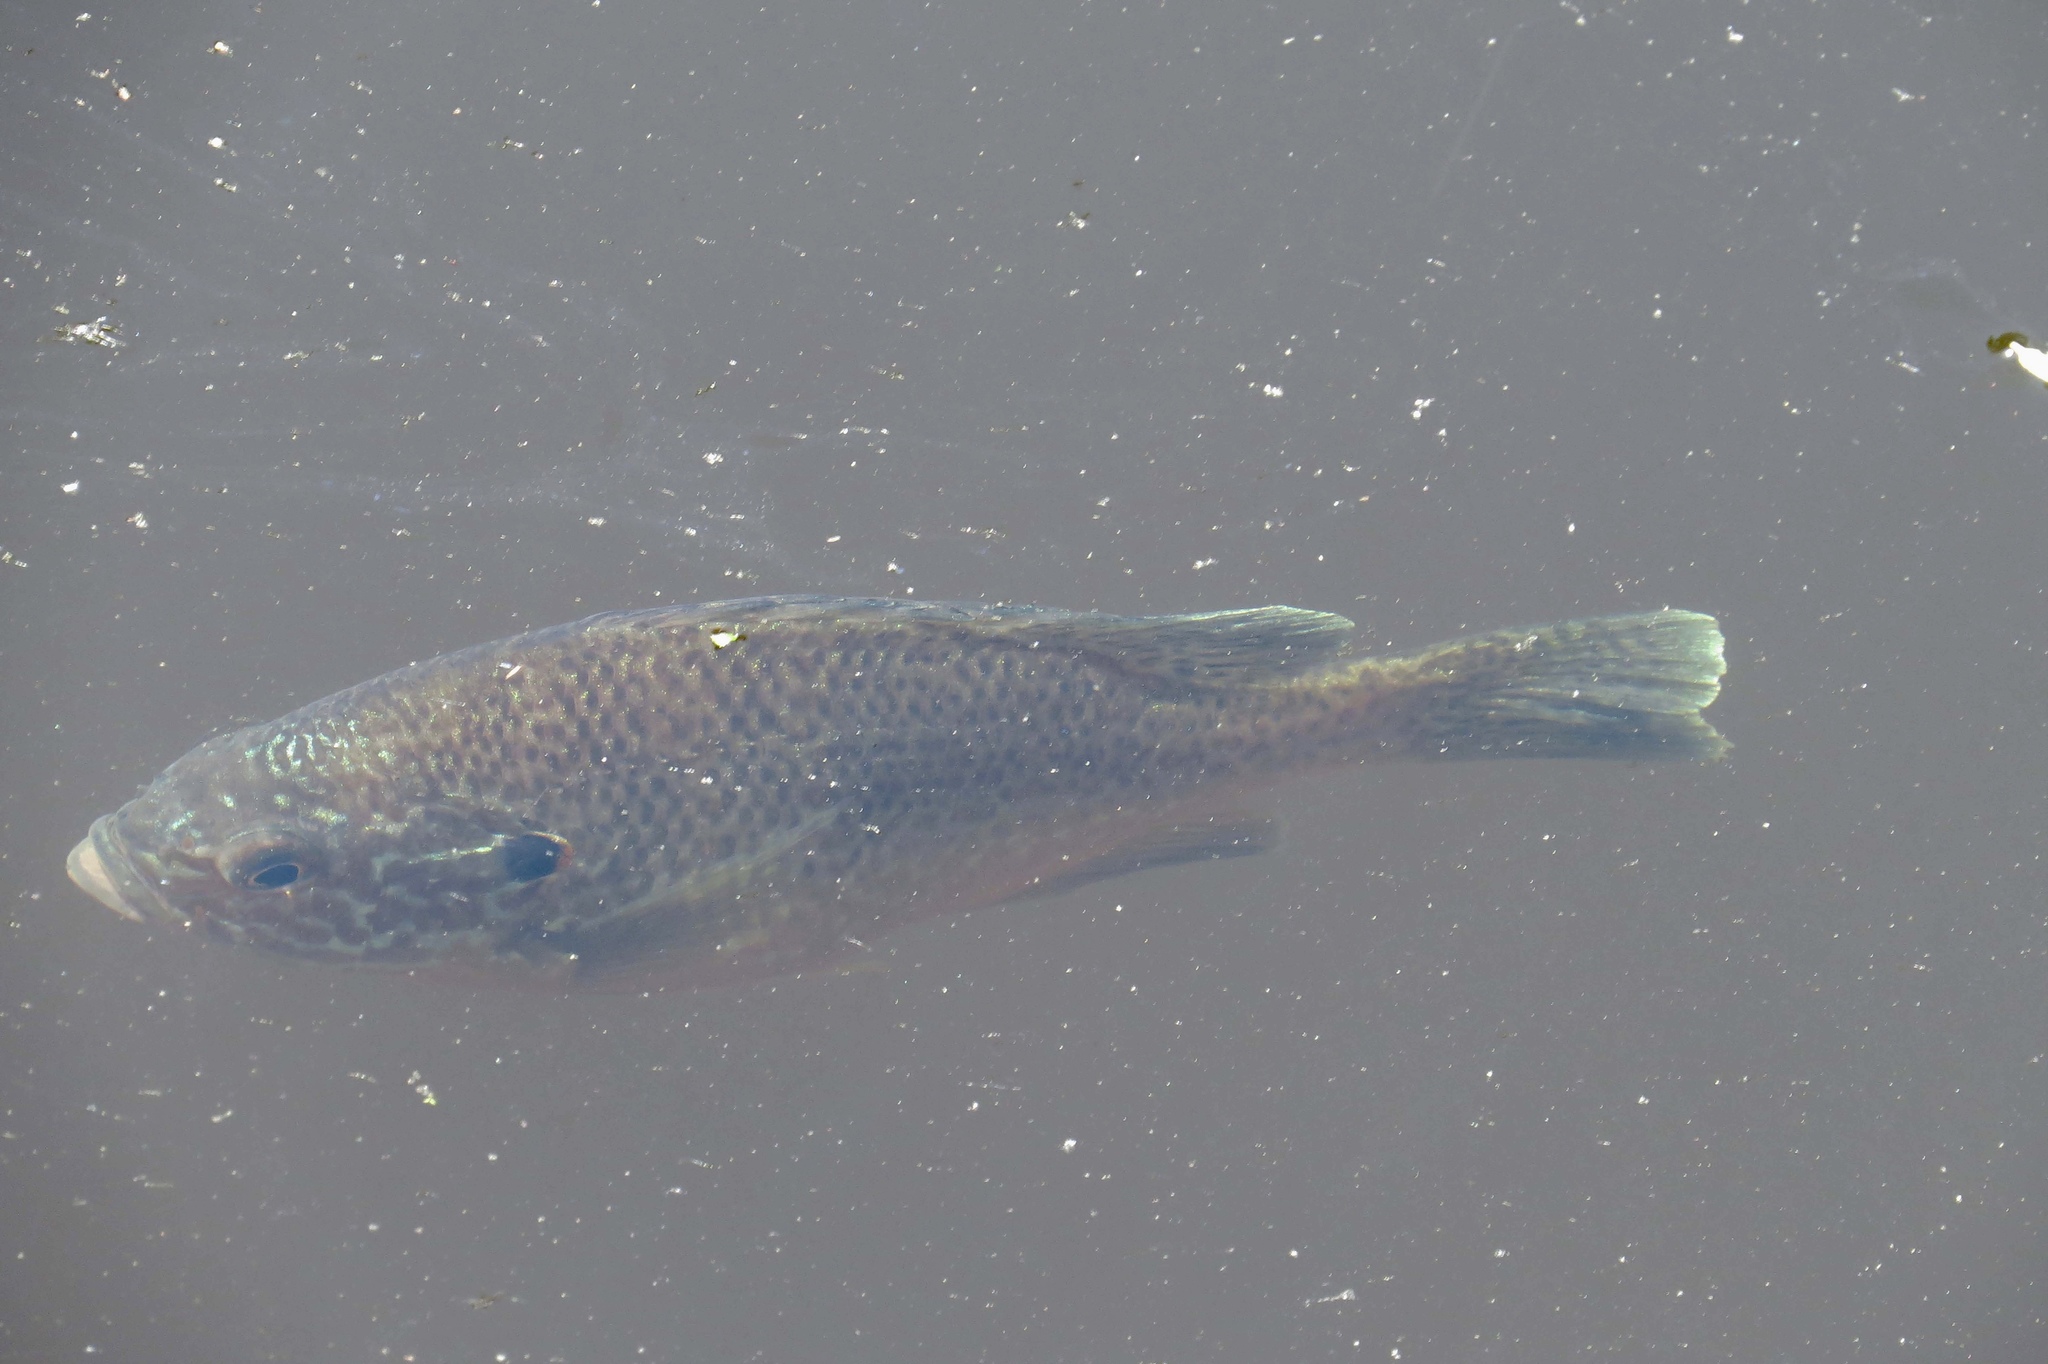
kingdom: Animalia
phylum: Chordata
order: Perciformes
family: Centrarchidae
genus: Lepomis
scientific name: Lepomis gibbosus
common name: Pumpkinseed
